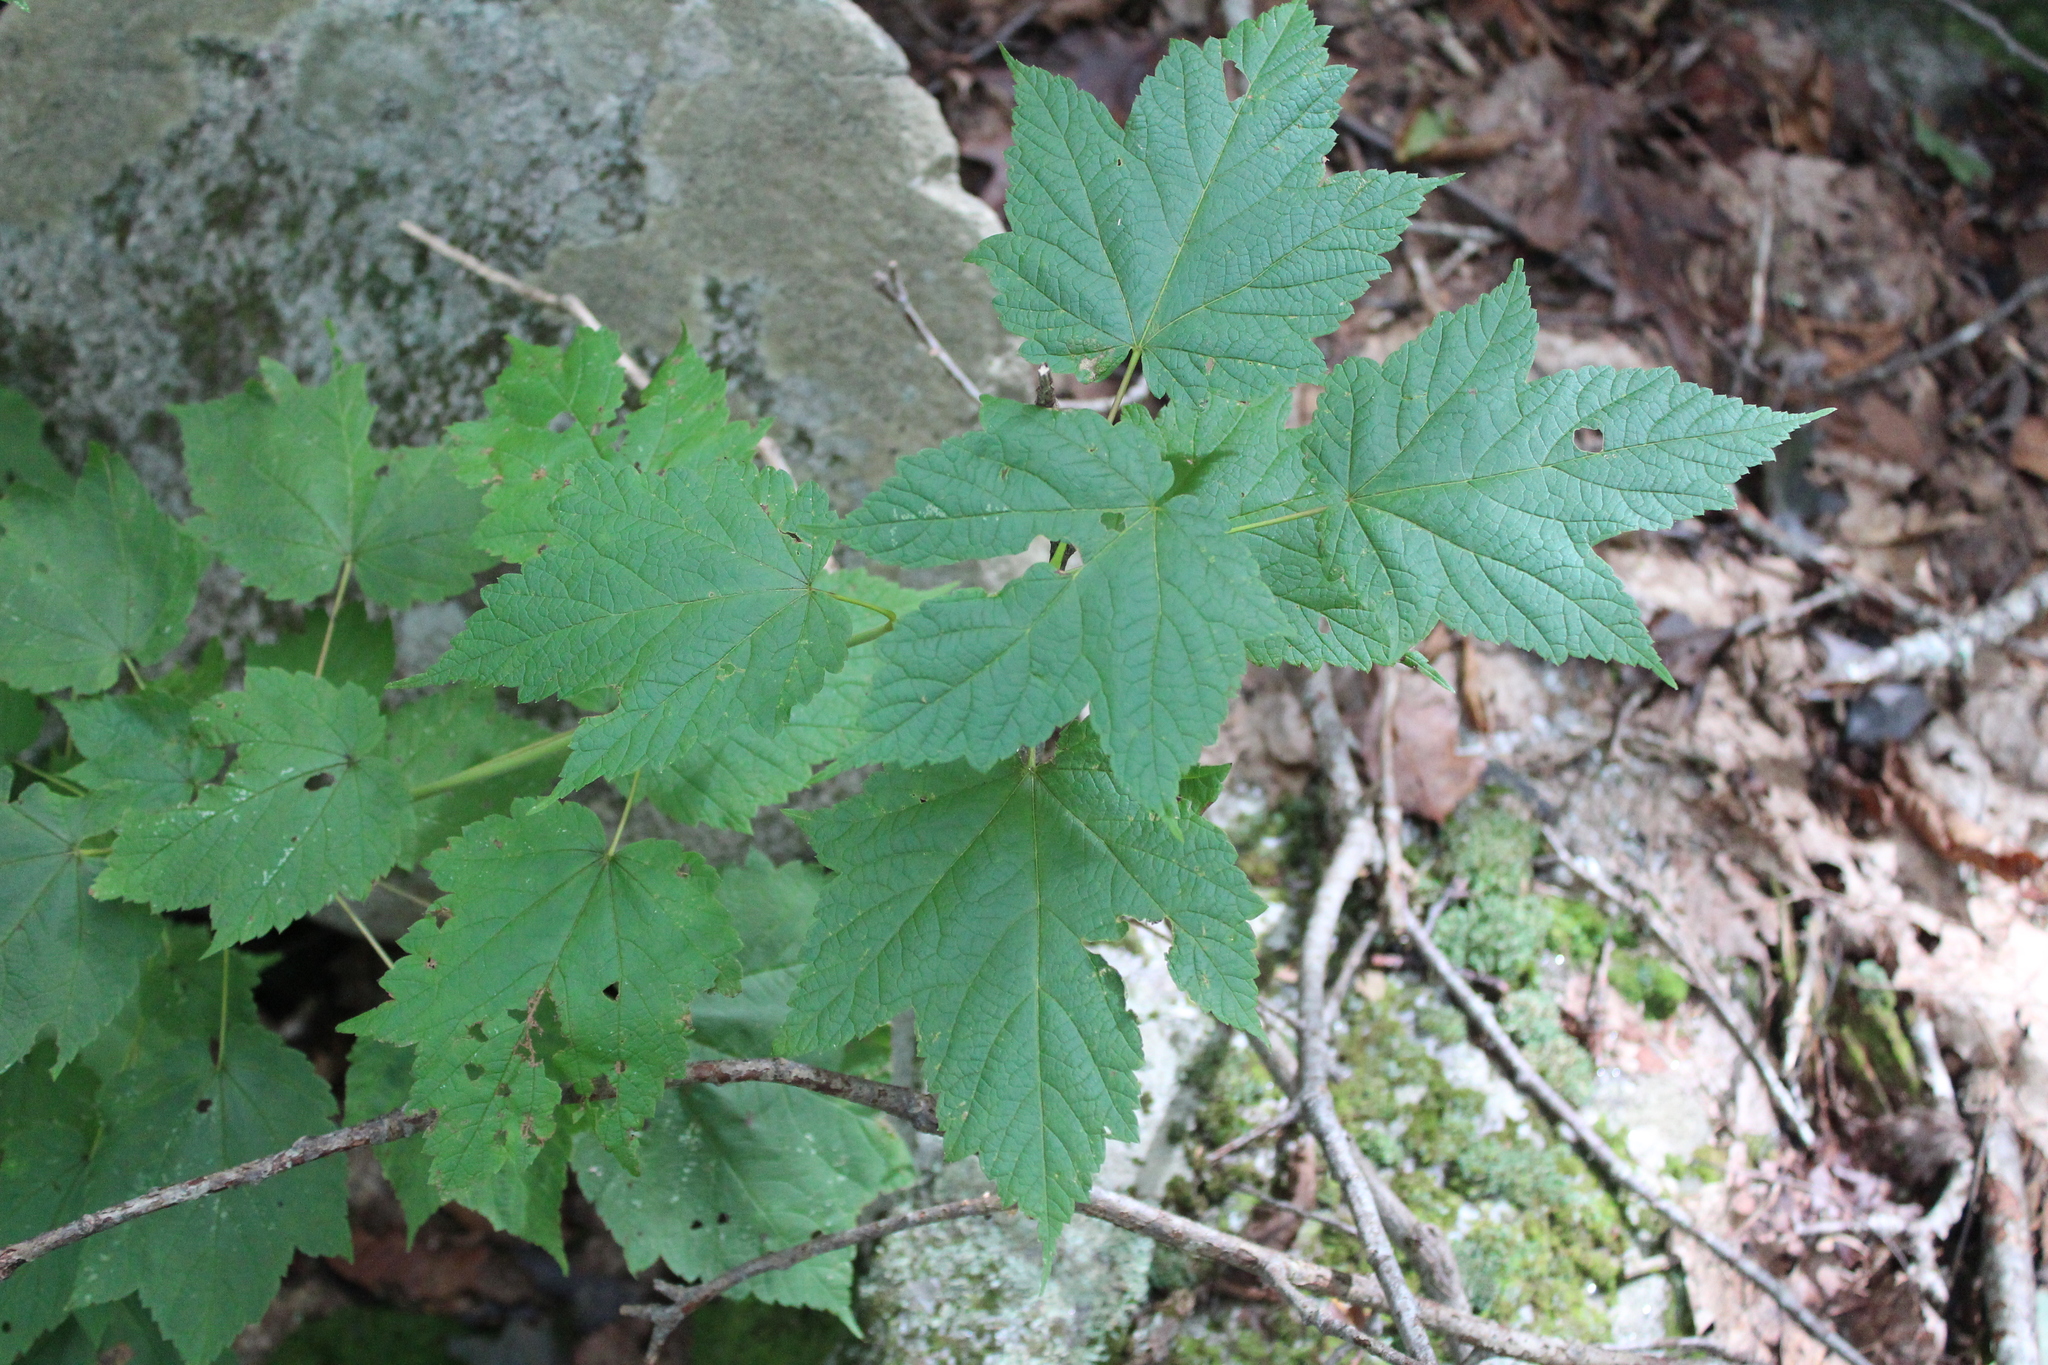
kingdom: Plantae
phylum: Tracheophyta
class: Magnoliopsida
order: Sapindales
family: Sapindaceae
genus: Acer
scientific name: Acer spicatum
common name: Mountain maple
